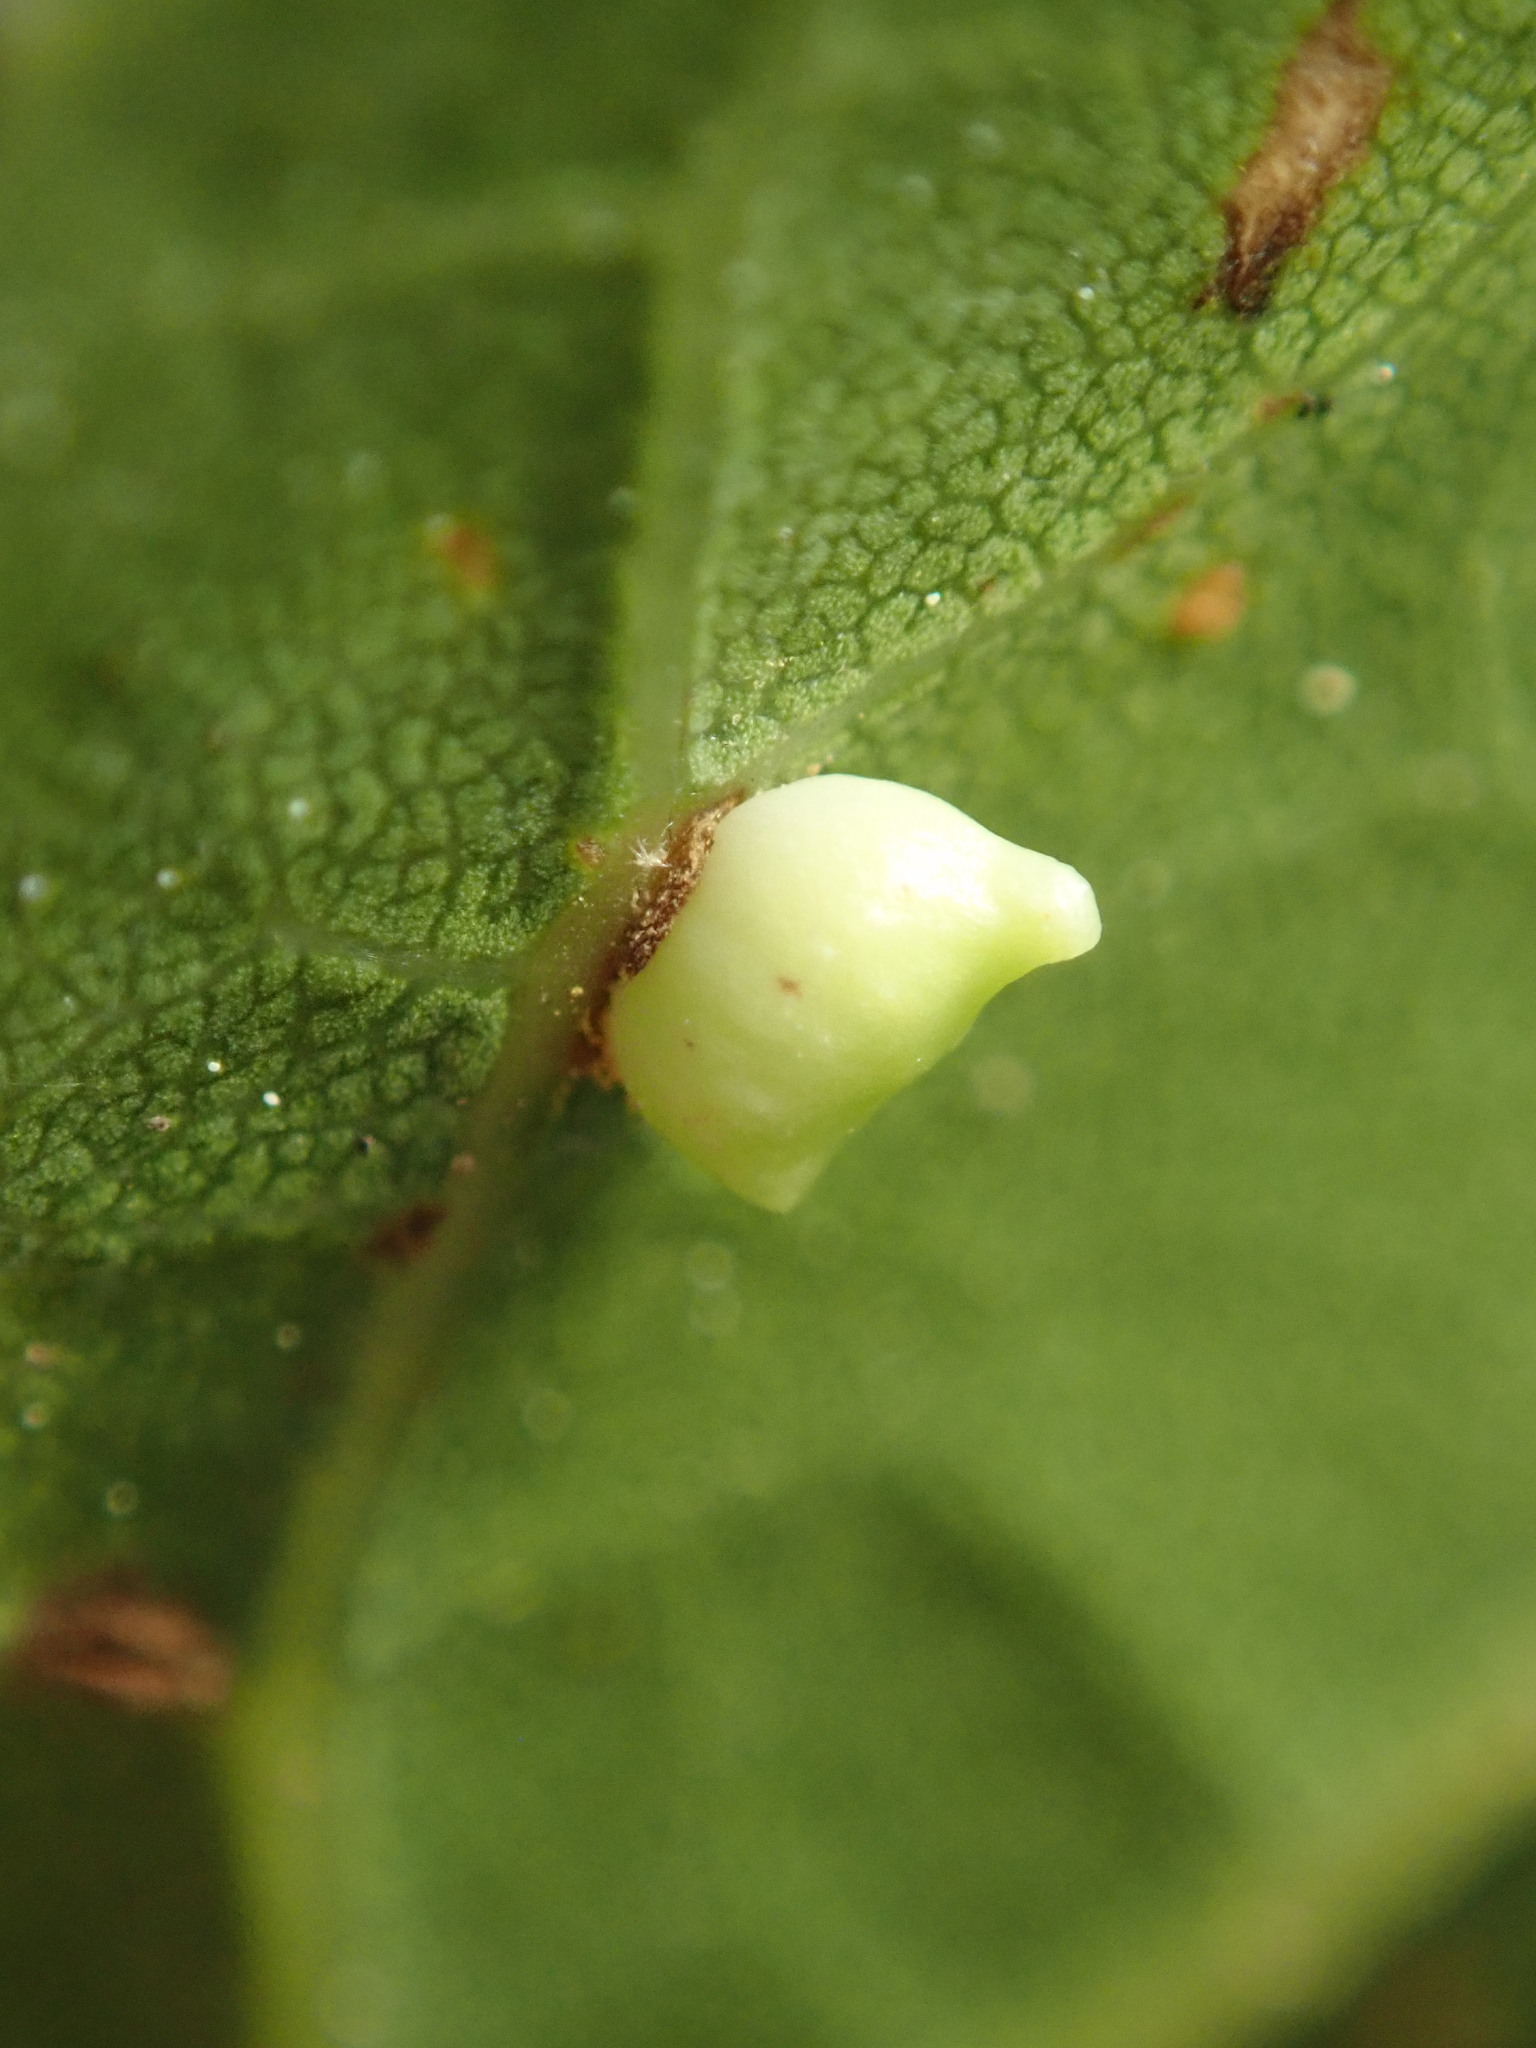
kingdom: Animalia
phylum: Arthropoda
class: Insecta
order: Hymenoptera
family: Cynipidae
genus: Dryocosmus
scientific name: Dryocosmus
